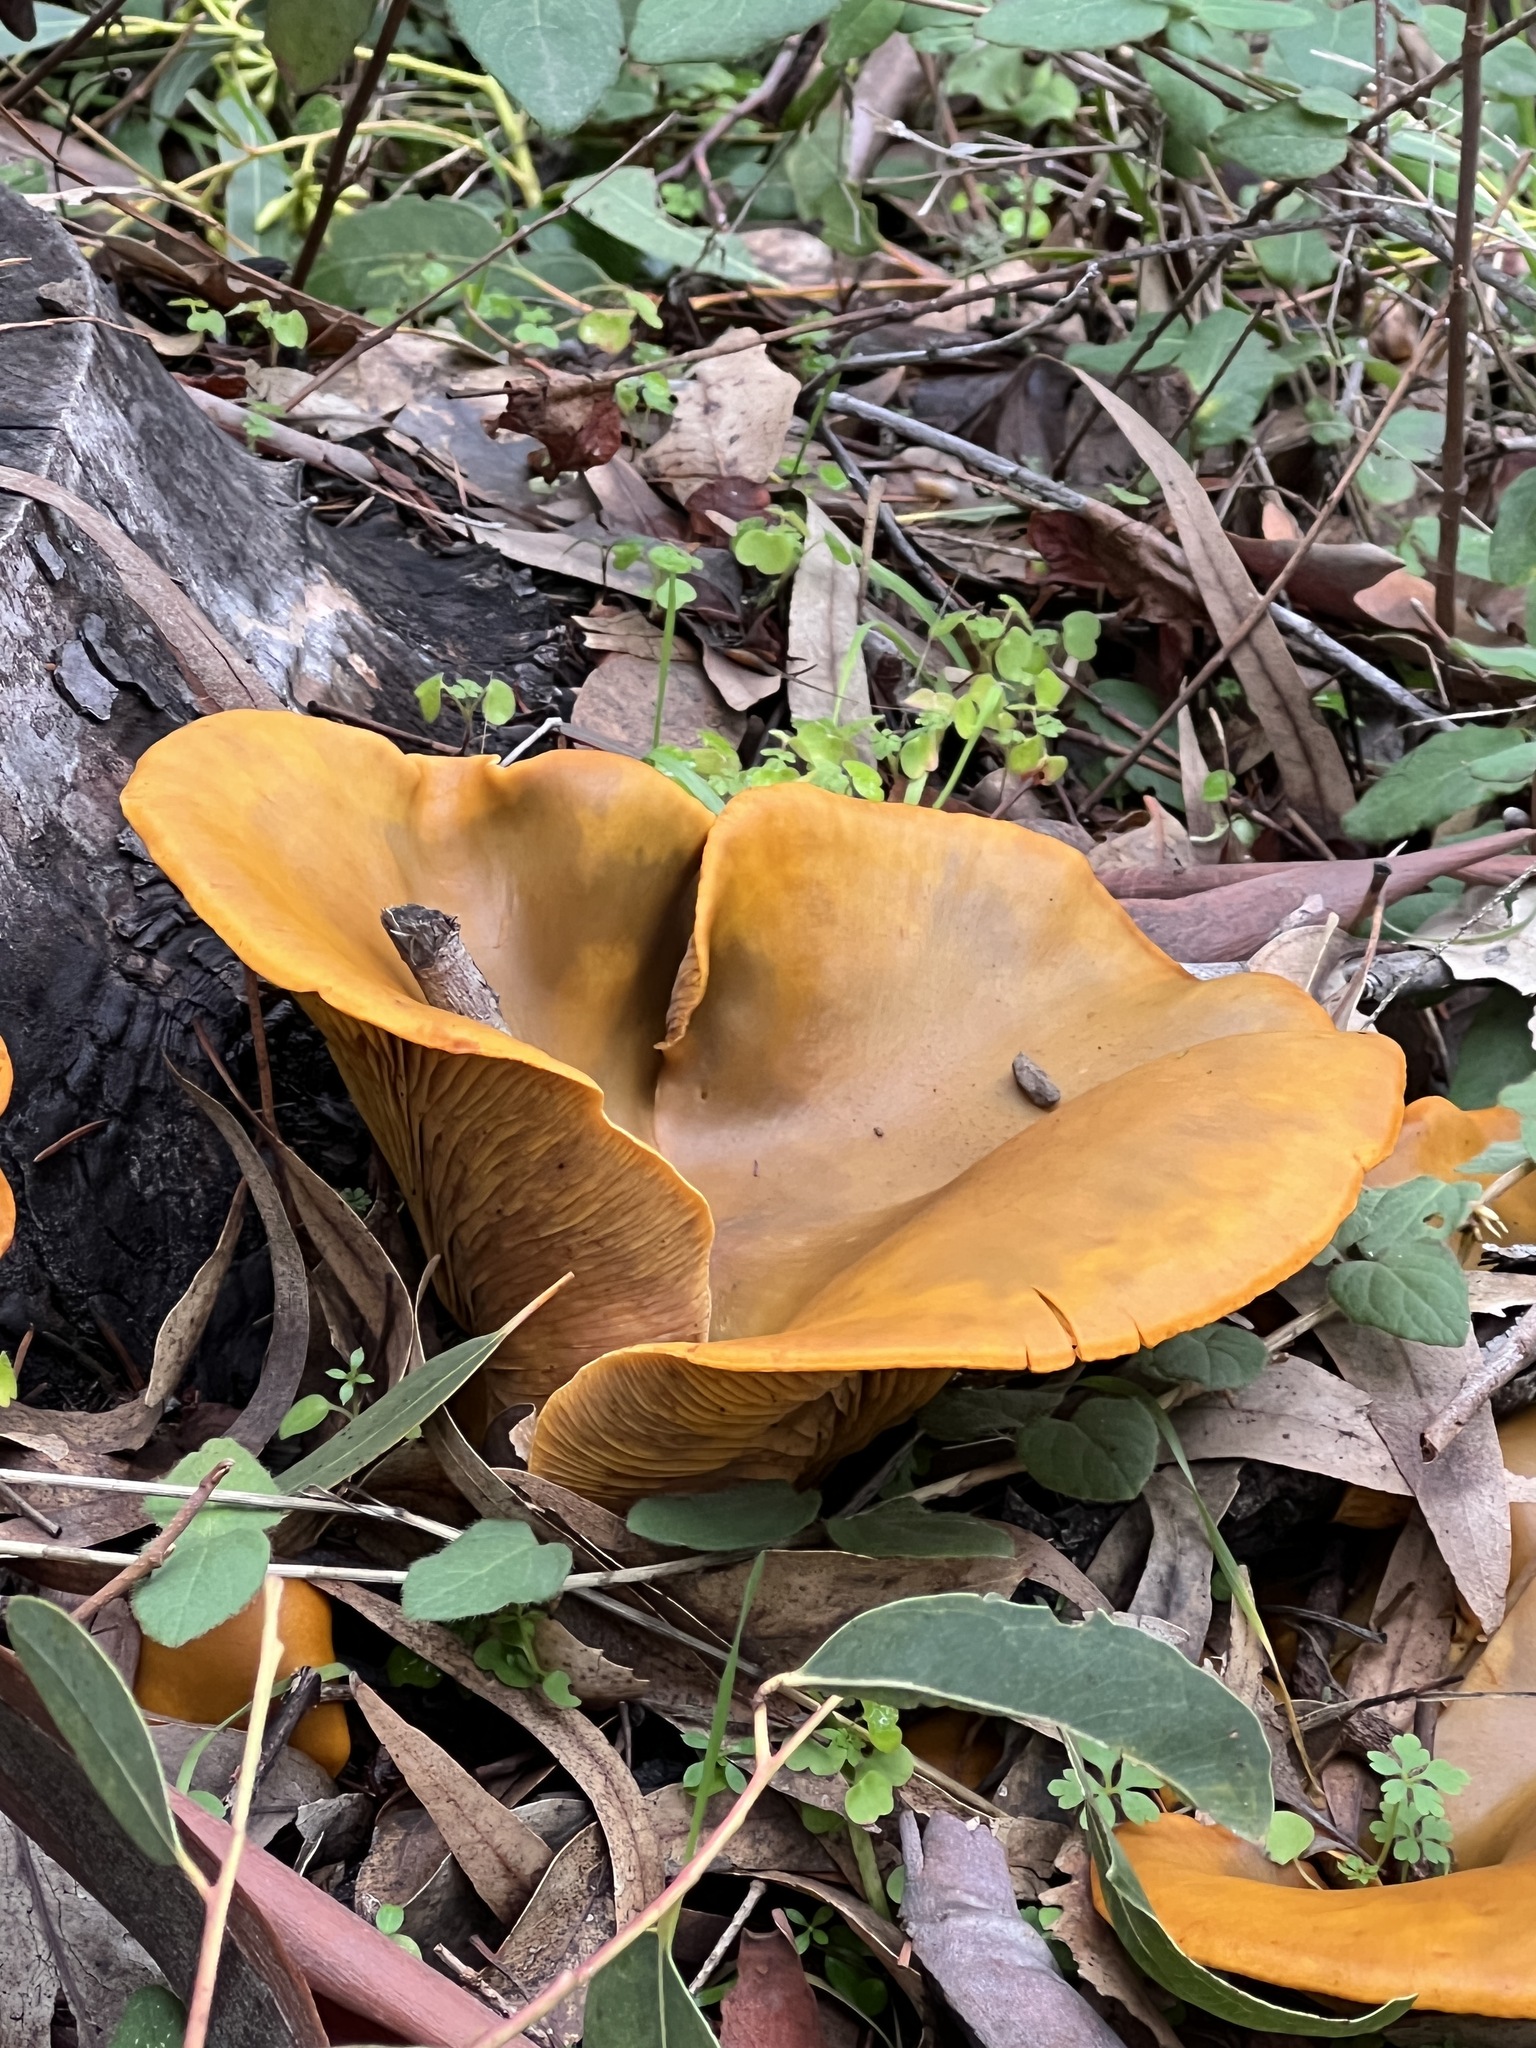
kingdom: Fungi
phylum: Basidiomycota
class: Agaricomycetes
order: Agaricales
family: Omphalotaceae
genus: Omphalotus
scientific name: Omphalotus olivascens
